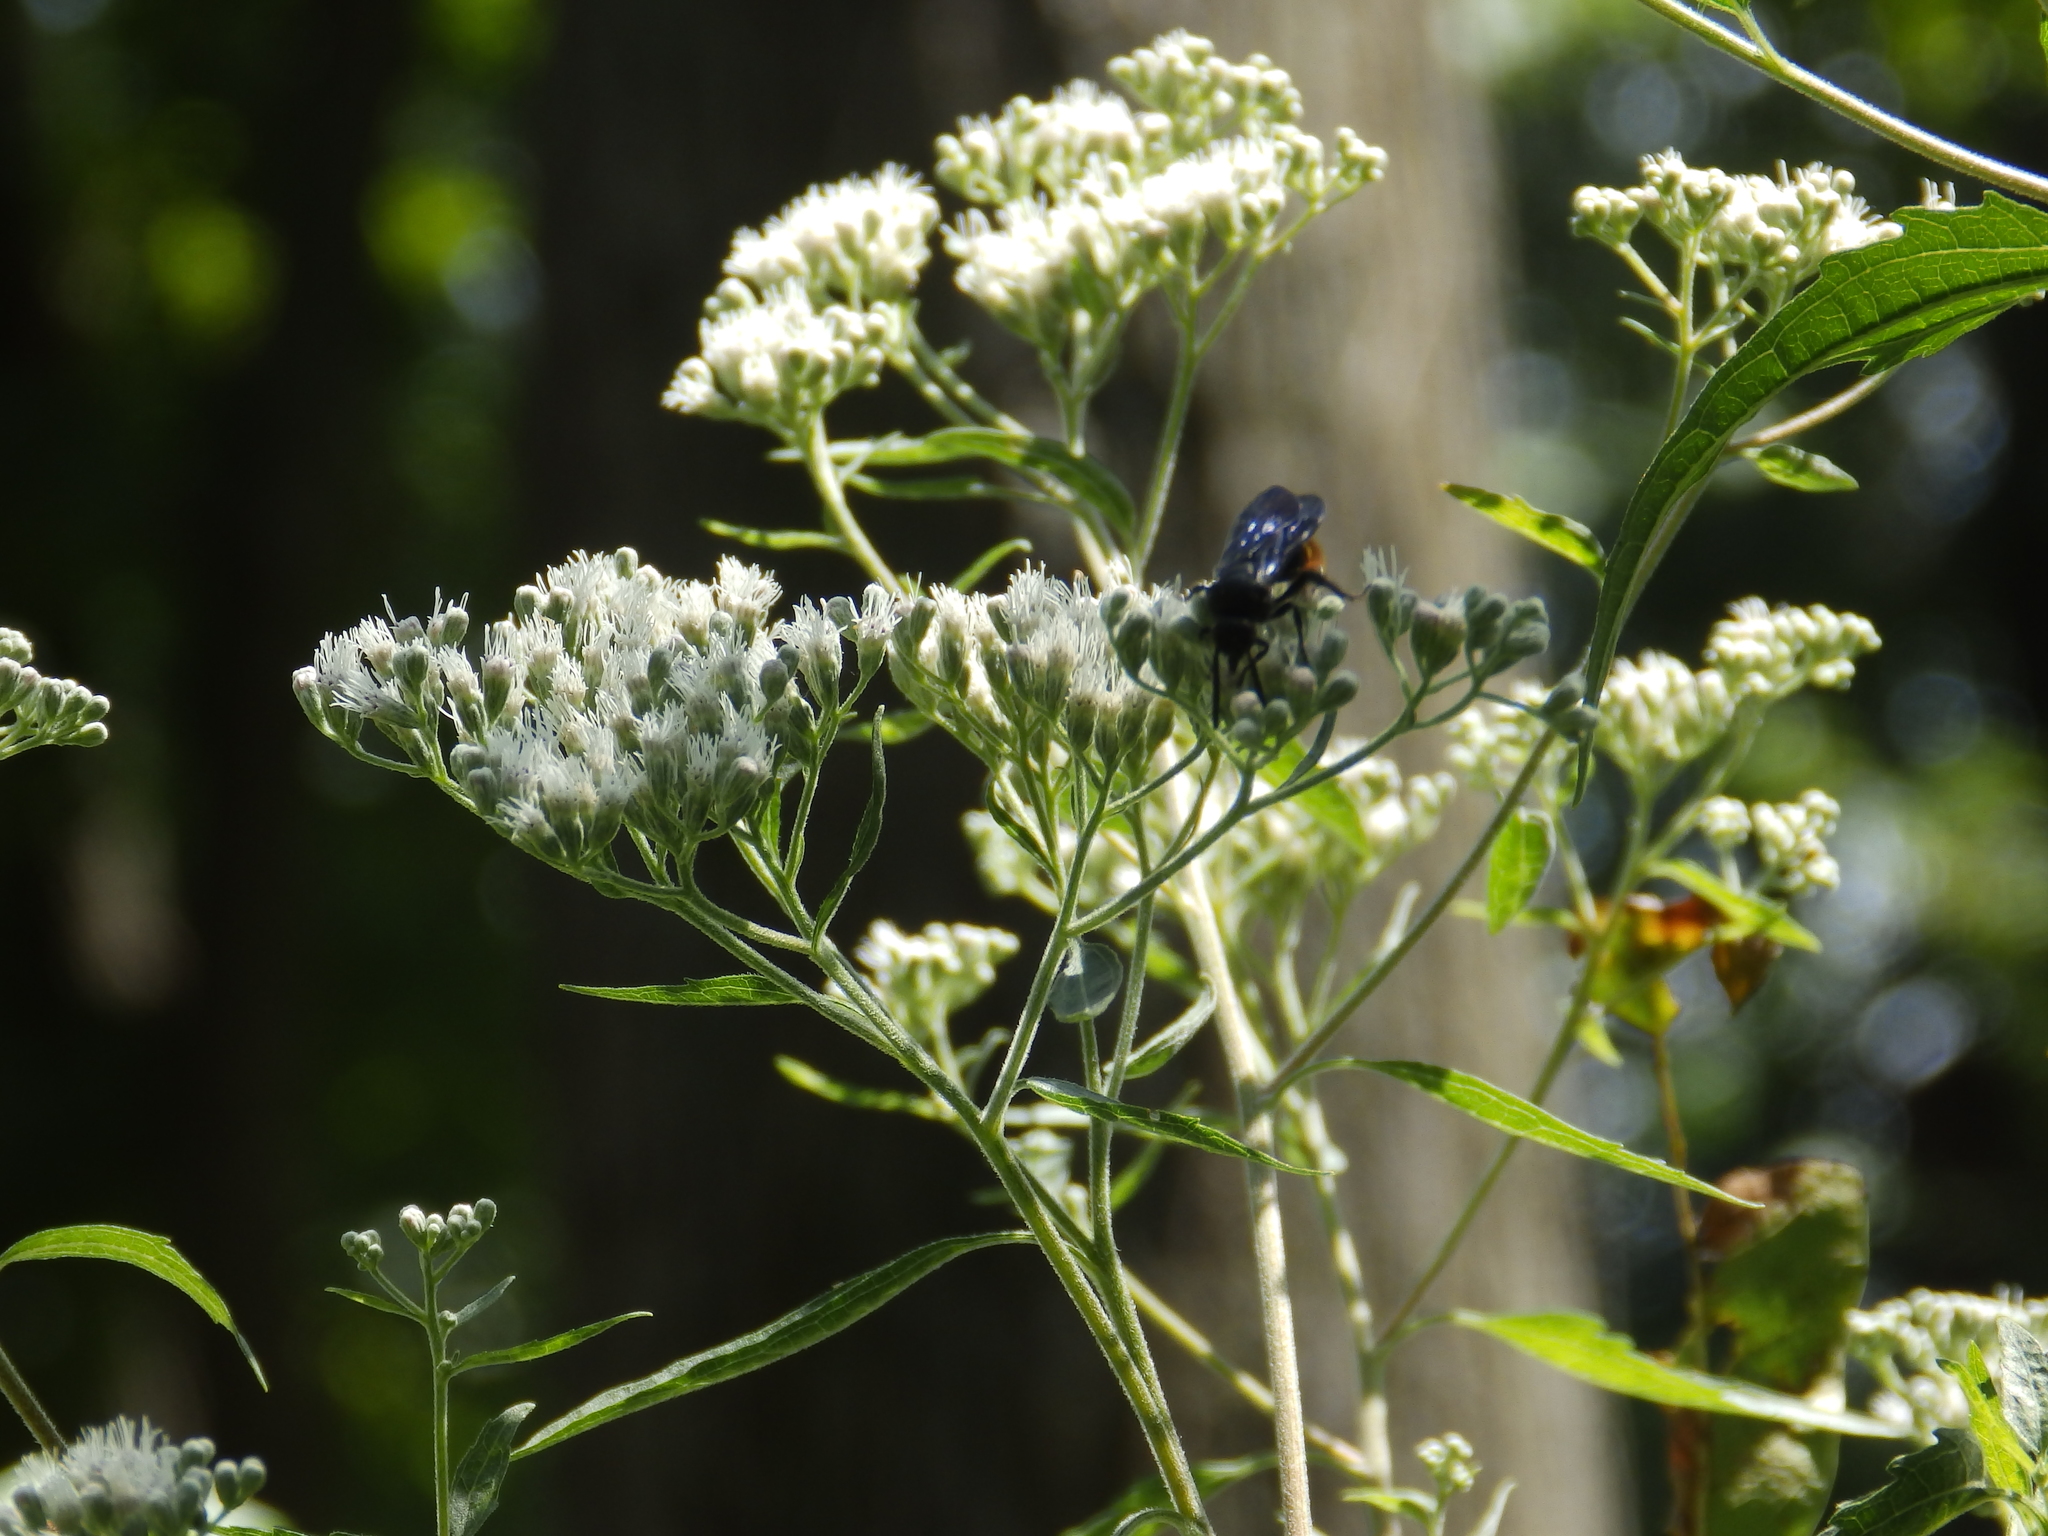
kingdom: Animalia
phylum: Arthropoda
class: Insecta
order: Hymenoptera
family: Scoliidae
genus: Scolia
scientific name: Scolia dubia
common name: Blue-winged scoliid wasp
